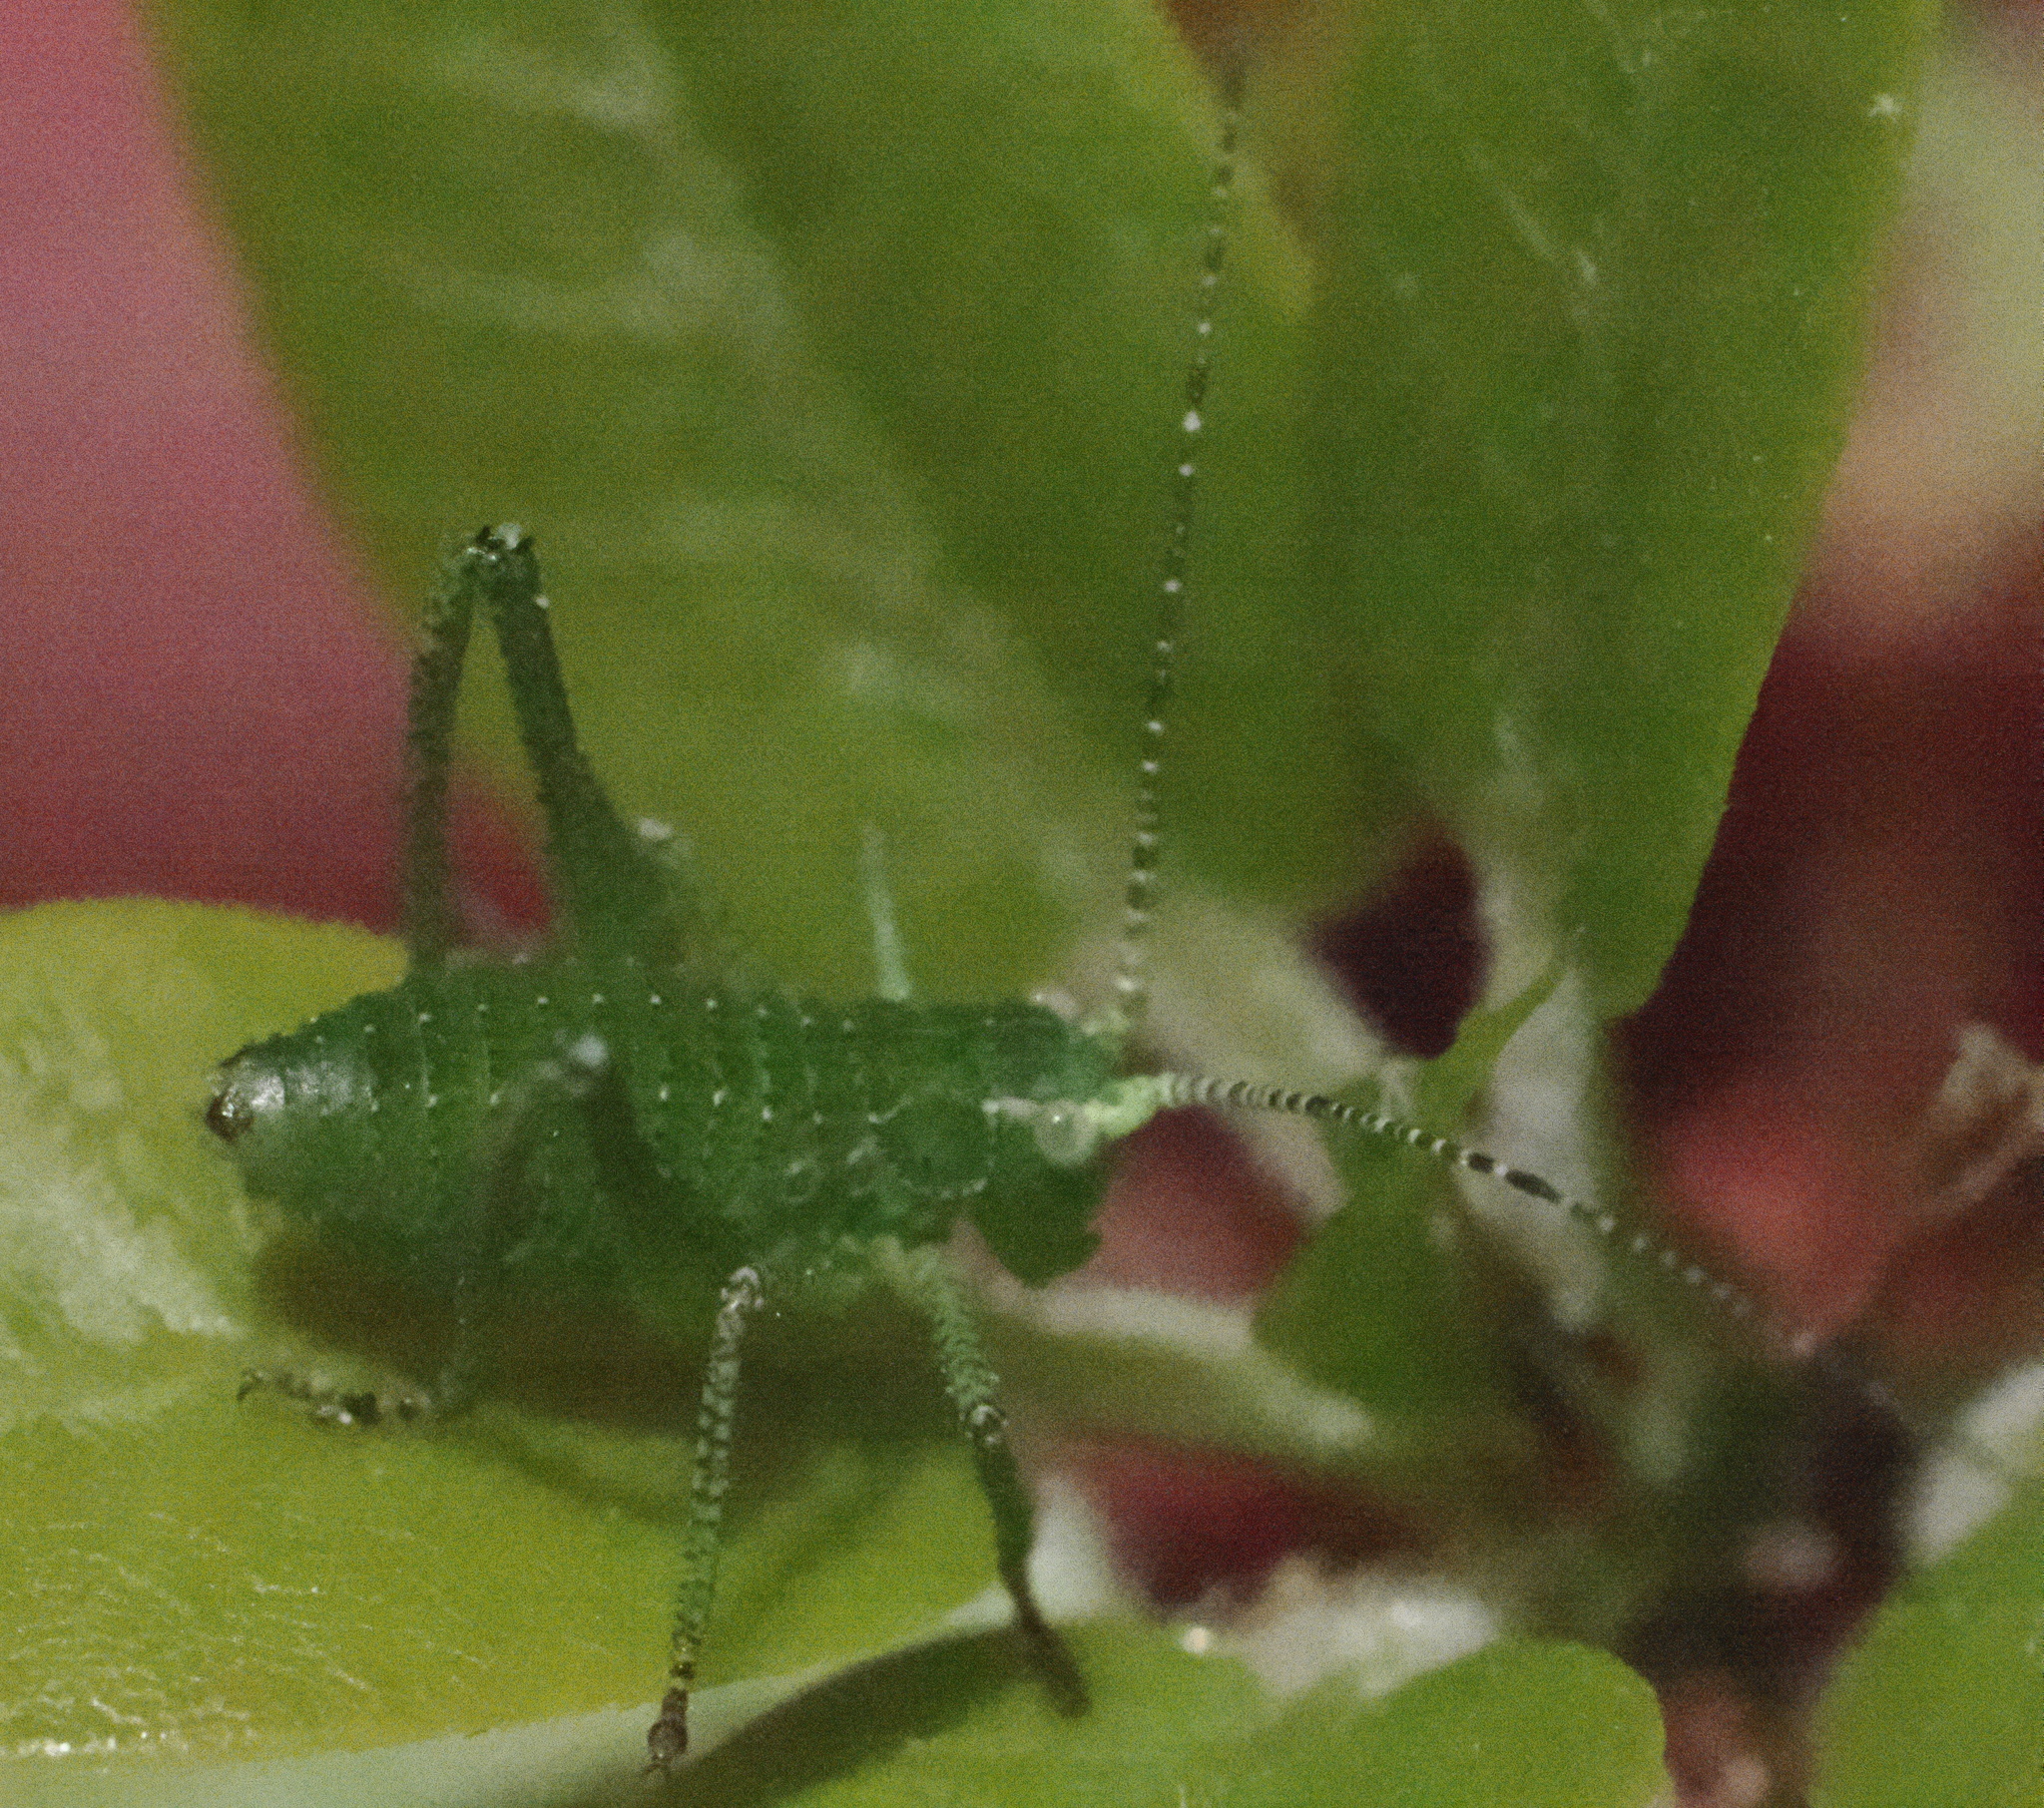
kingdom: Animalia
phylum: Arthropoda
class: Insecta
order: Orthoptera
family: Tettigoniidae
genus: Platylyra
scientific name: Platylyra californica
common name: Chaparral false katydid
